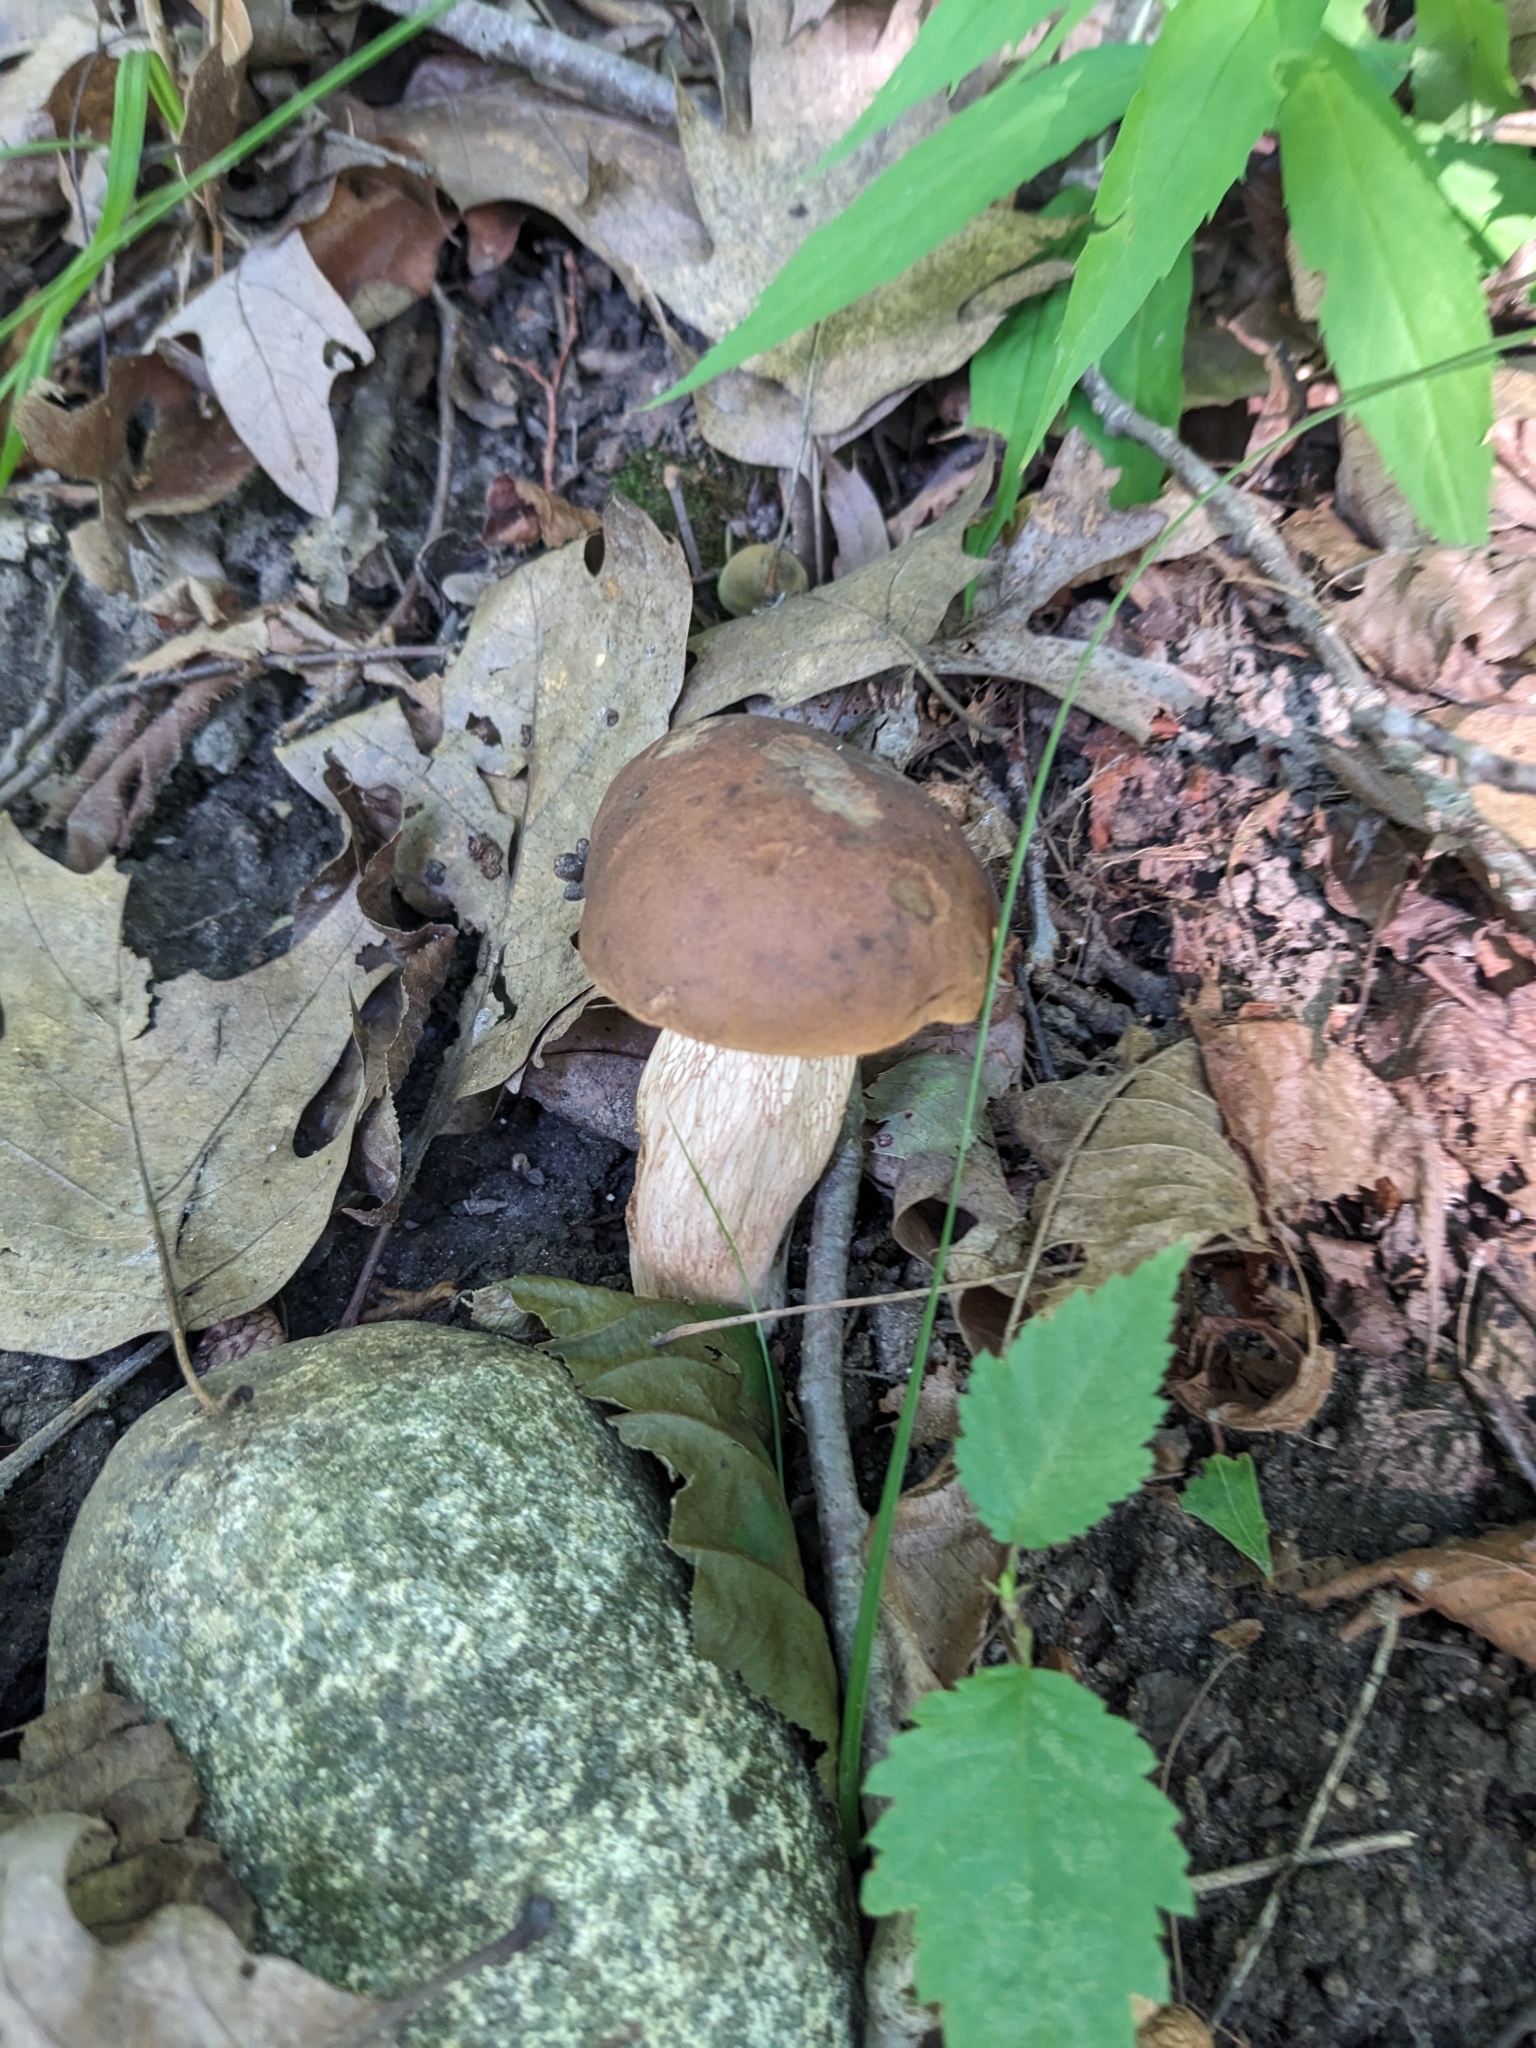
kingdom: Fungi
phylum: Basidiomycota
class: Agaricomycetes
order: Boletales
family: Boletaceae
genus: Tylopilus
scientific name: Tylopilus felleus
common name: Bitter bolete
